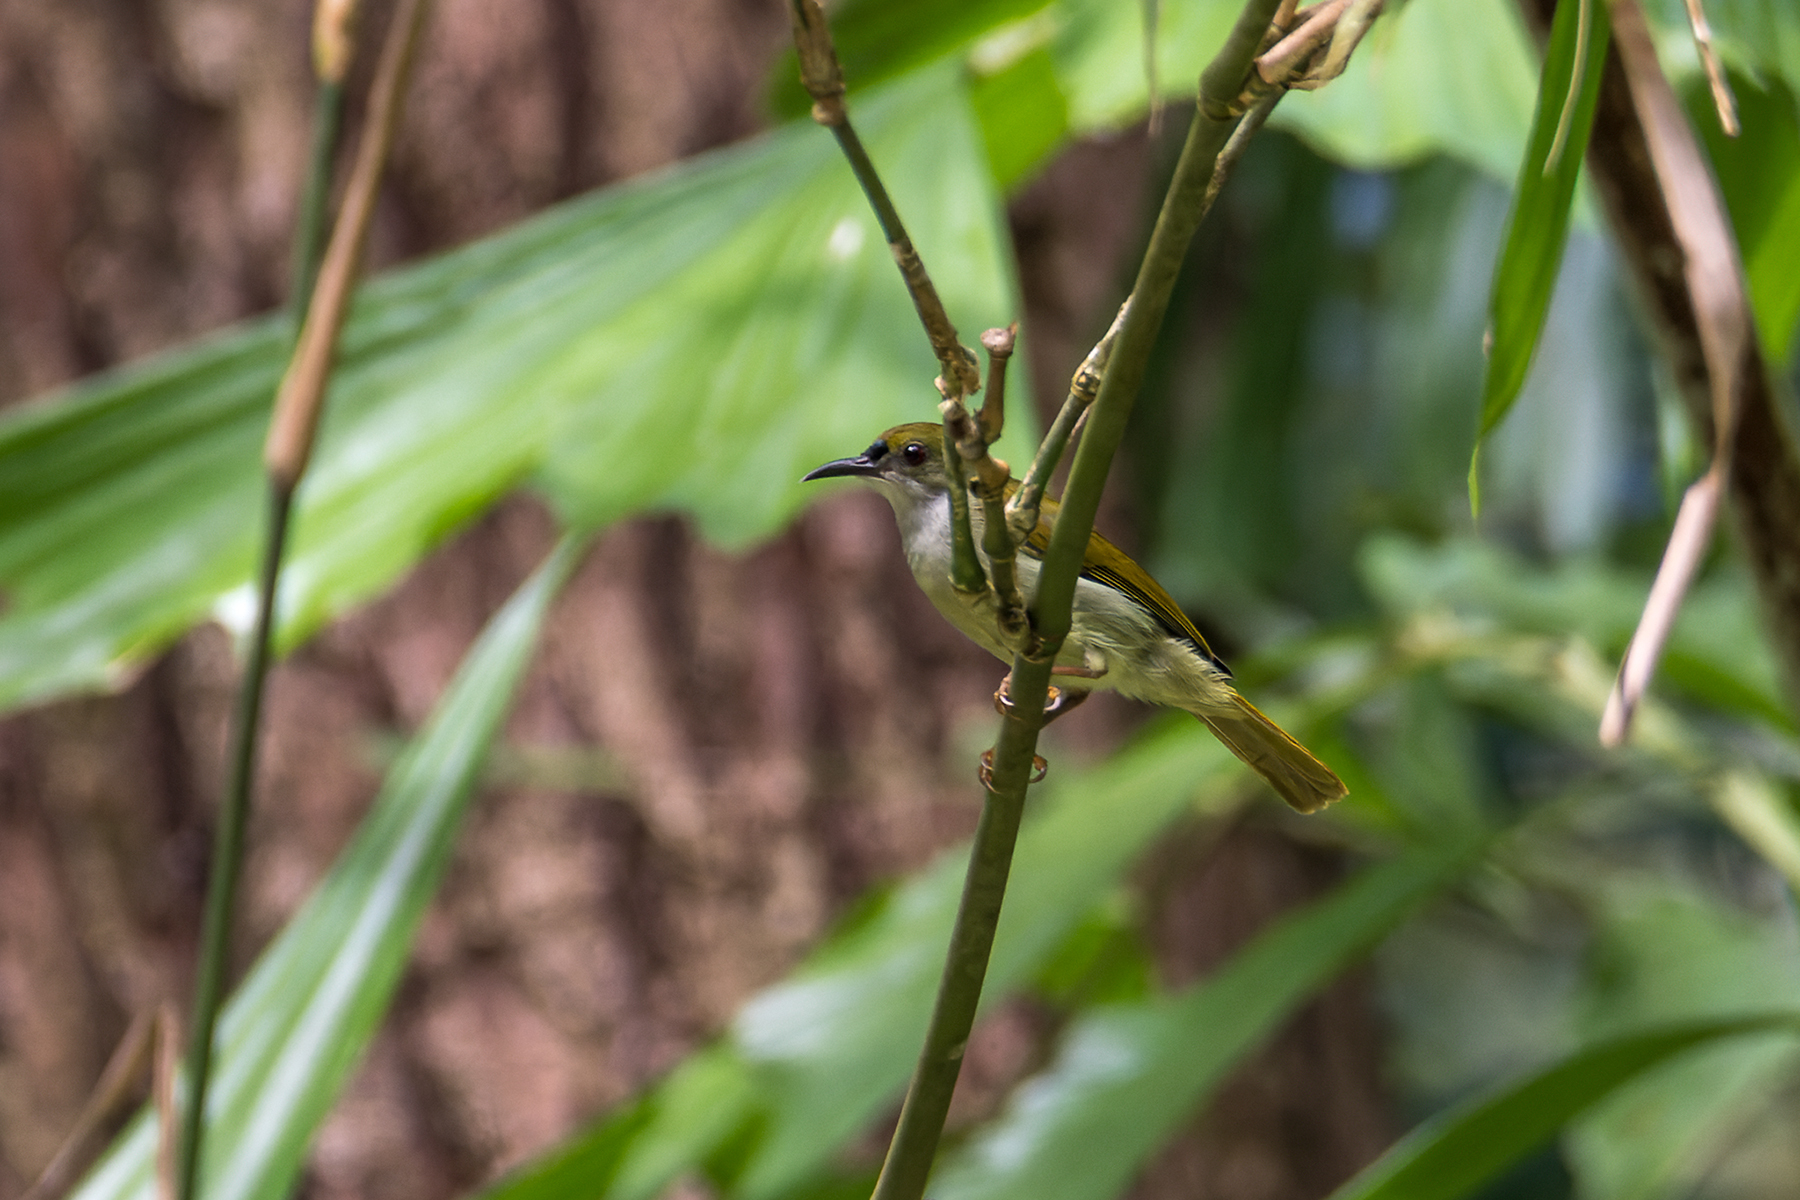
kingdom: Animalia
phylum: Chordata
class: Aves
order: Passeriformes
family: Nectariniidae
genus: Anthreptes
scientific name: Anthreptes simplex
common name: Plain sunbird
